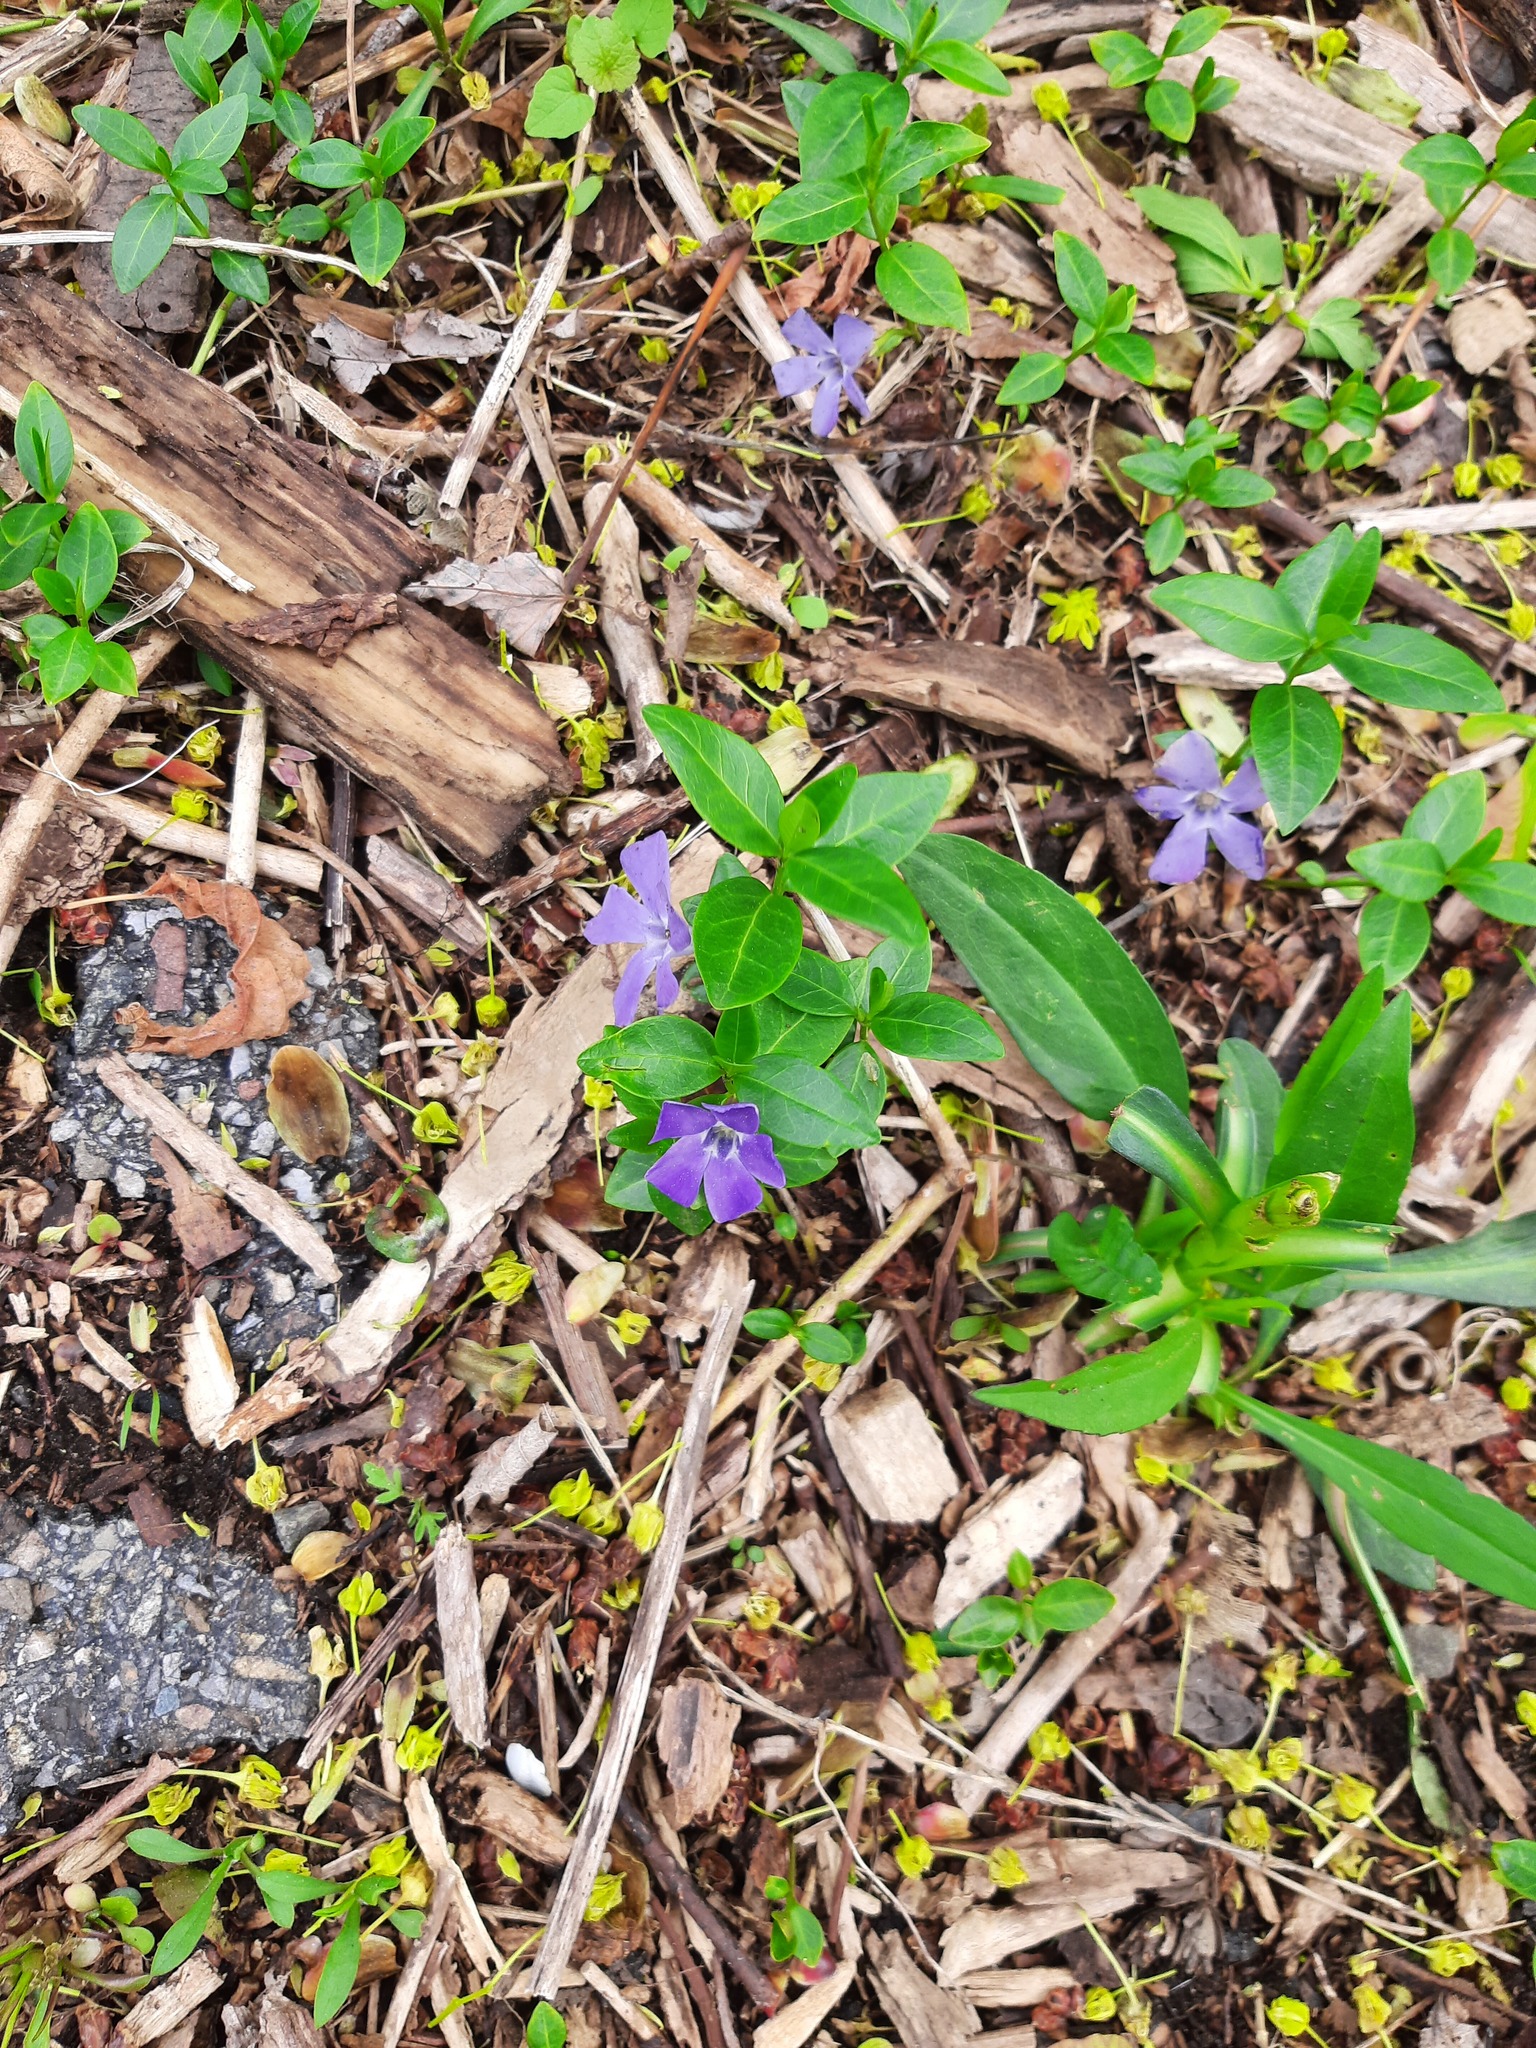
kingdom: Plantae
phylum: Tracheophyta
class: Magnoliopsida
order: Gentianales
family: Apocynaceae
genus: Vinca
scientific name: Vinca minor
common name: Lesser periwinkle
